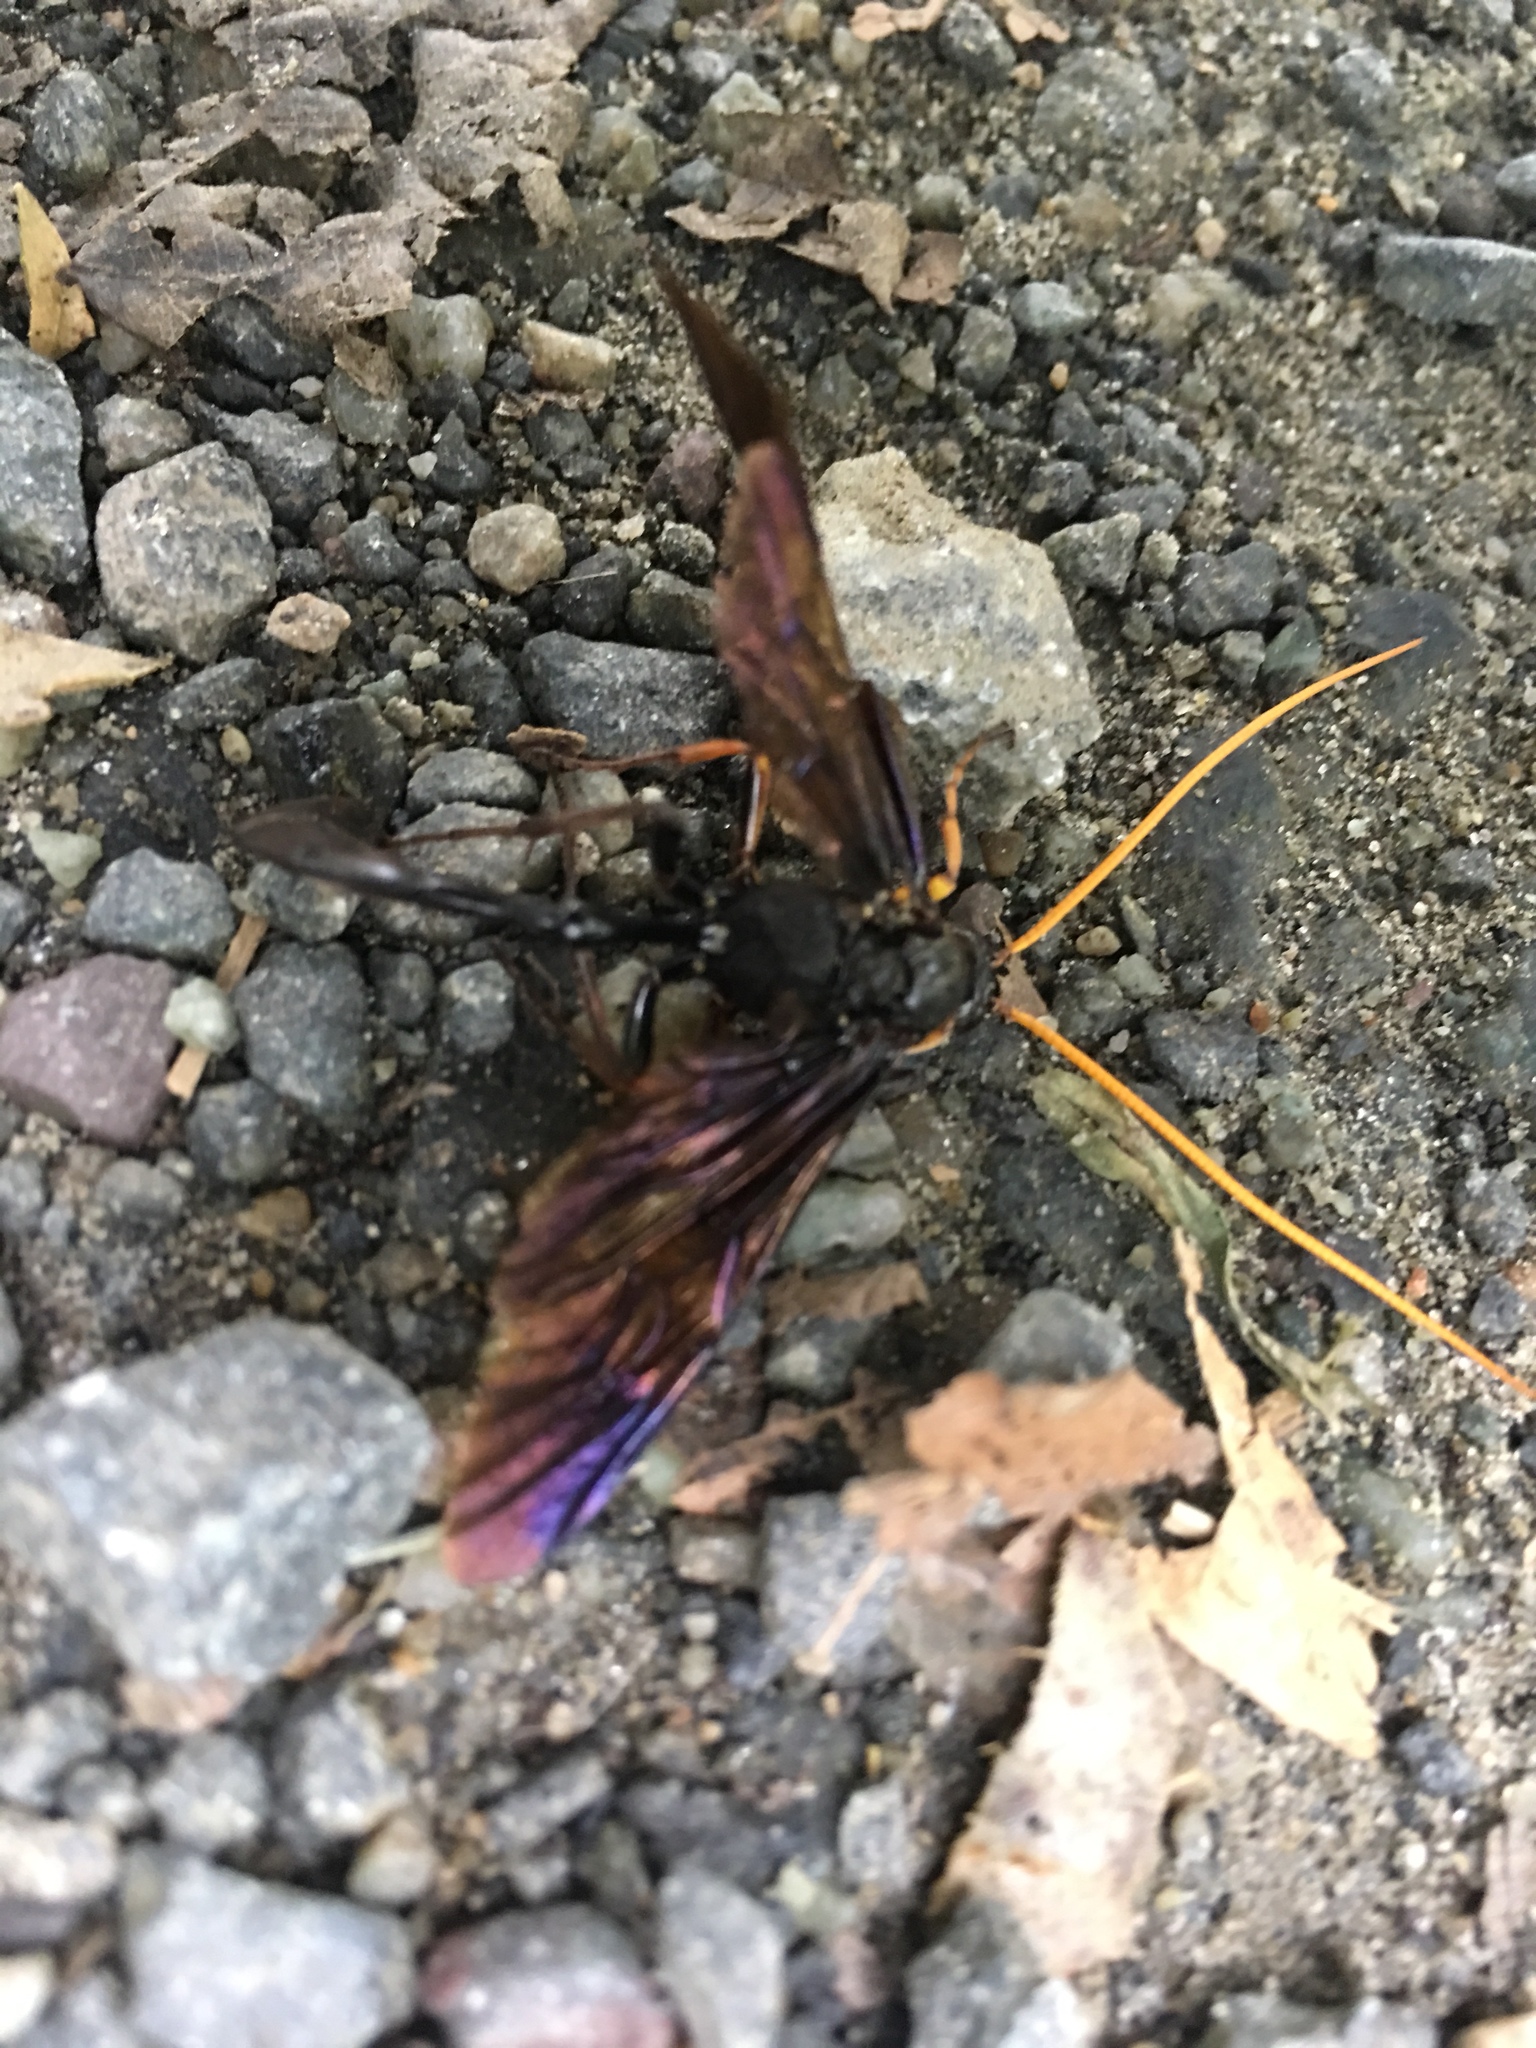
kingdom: Animalia
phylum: Arthropoda
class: Insecta
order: Hymenoptera
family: Ichneumonidae
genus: Thyreodon
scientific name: Thyreodon atricolor
